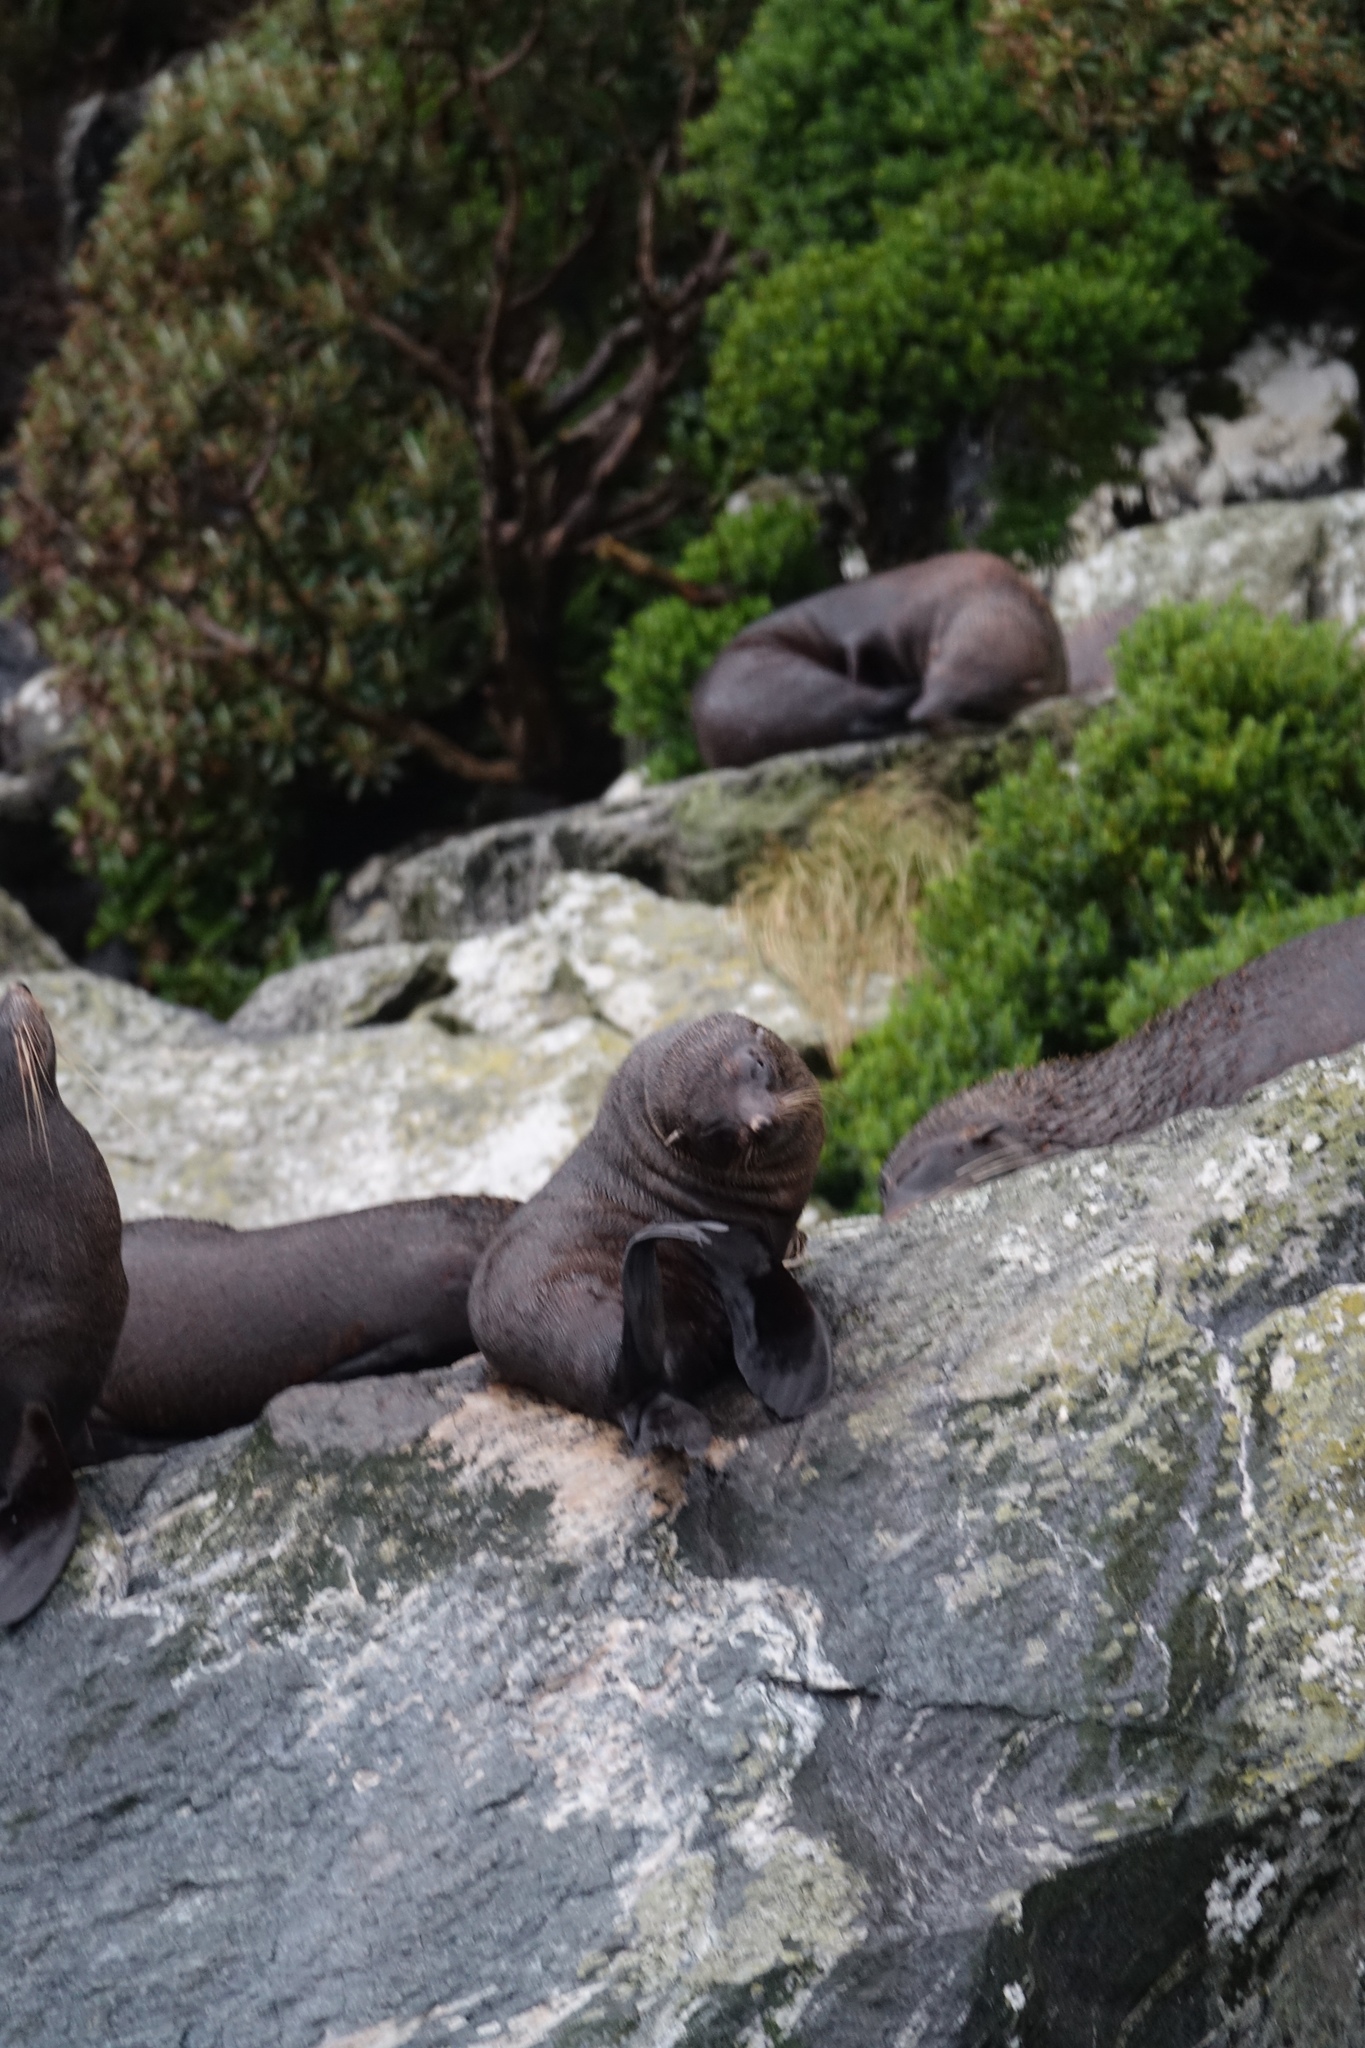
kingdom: Animalia
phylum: Chordata
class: Mammalia
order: Carnivora
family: Otariidae
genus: Arctocephalus
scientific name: Arctocephalus forsteri
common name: New zealand fur seal
